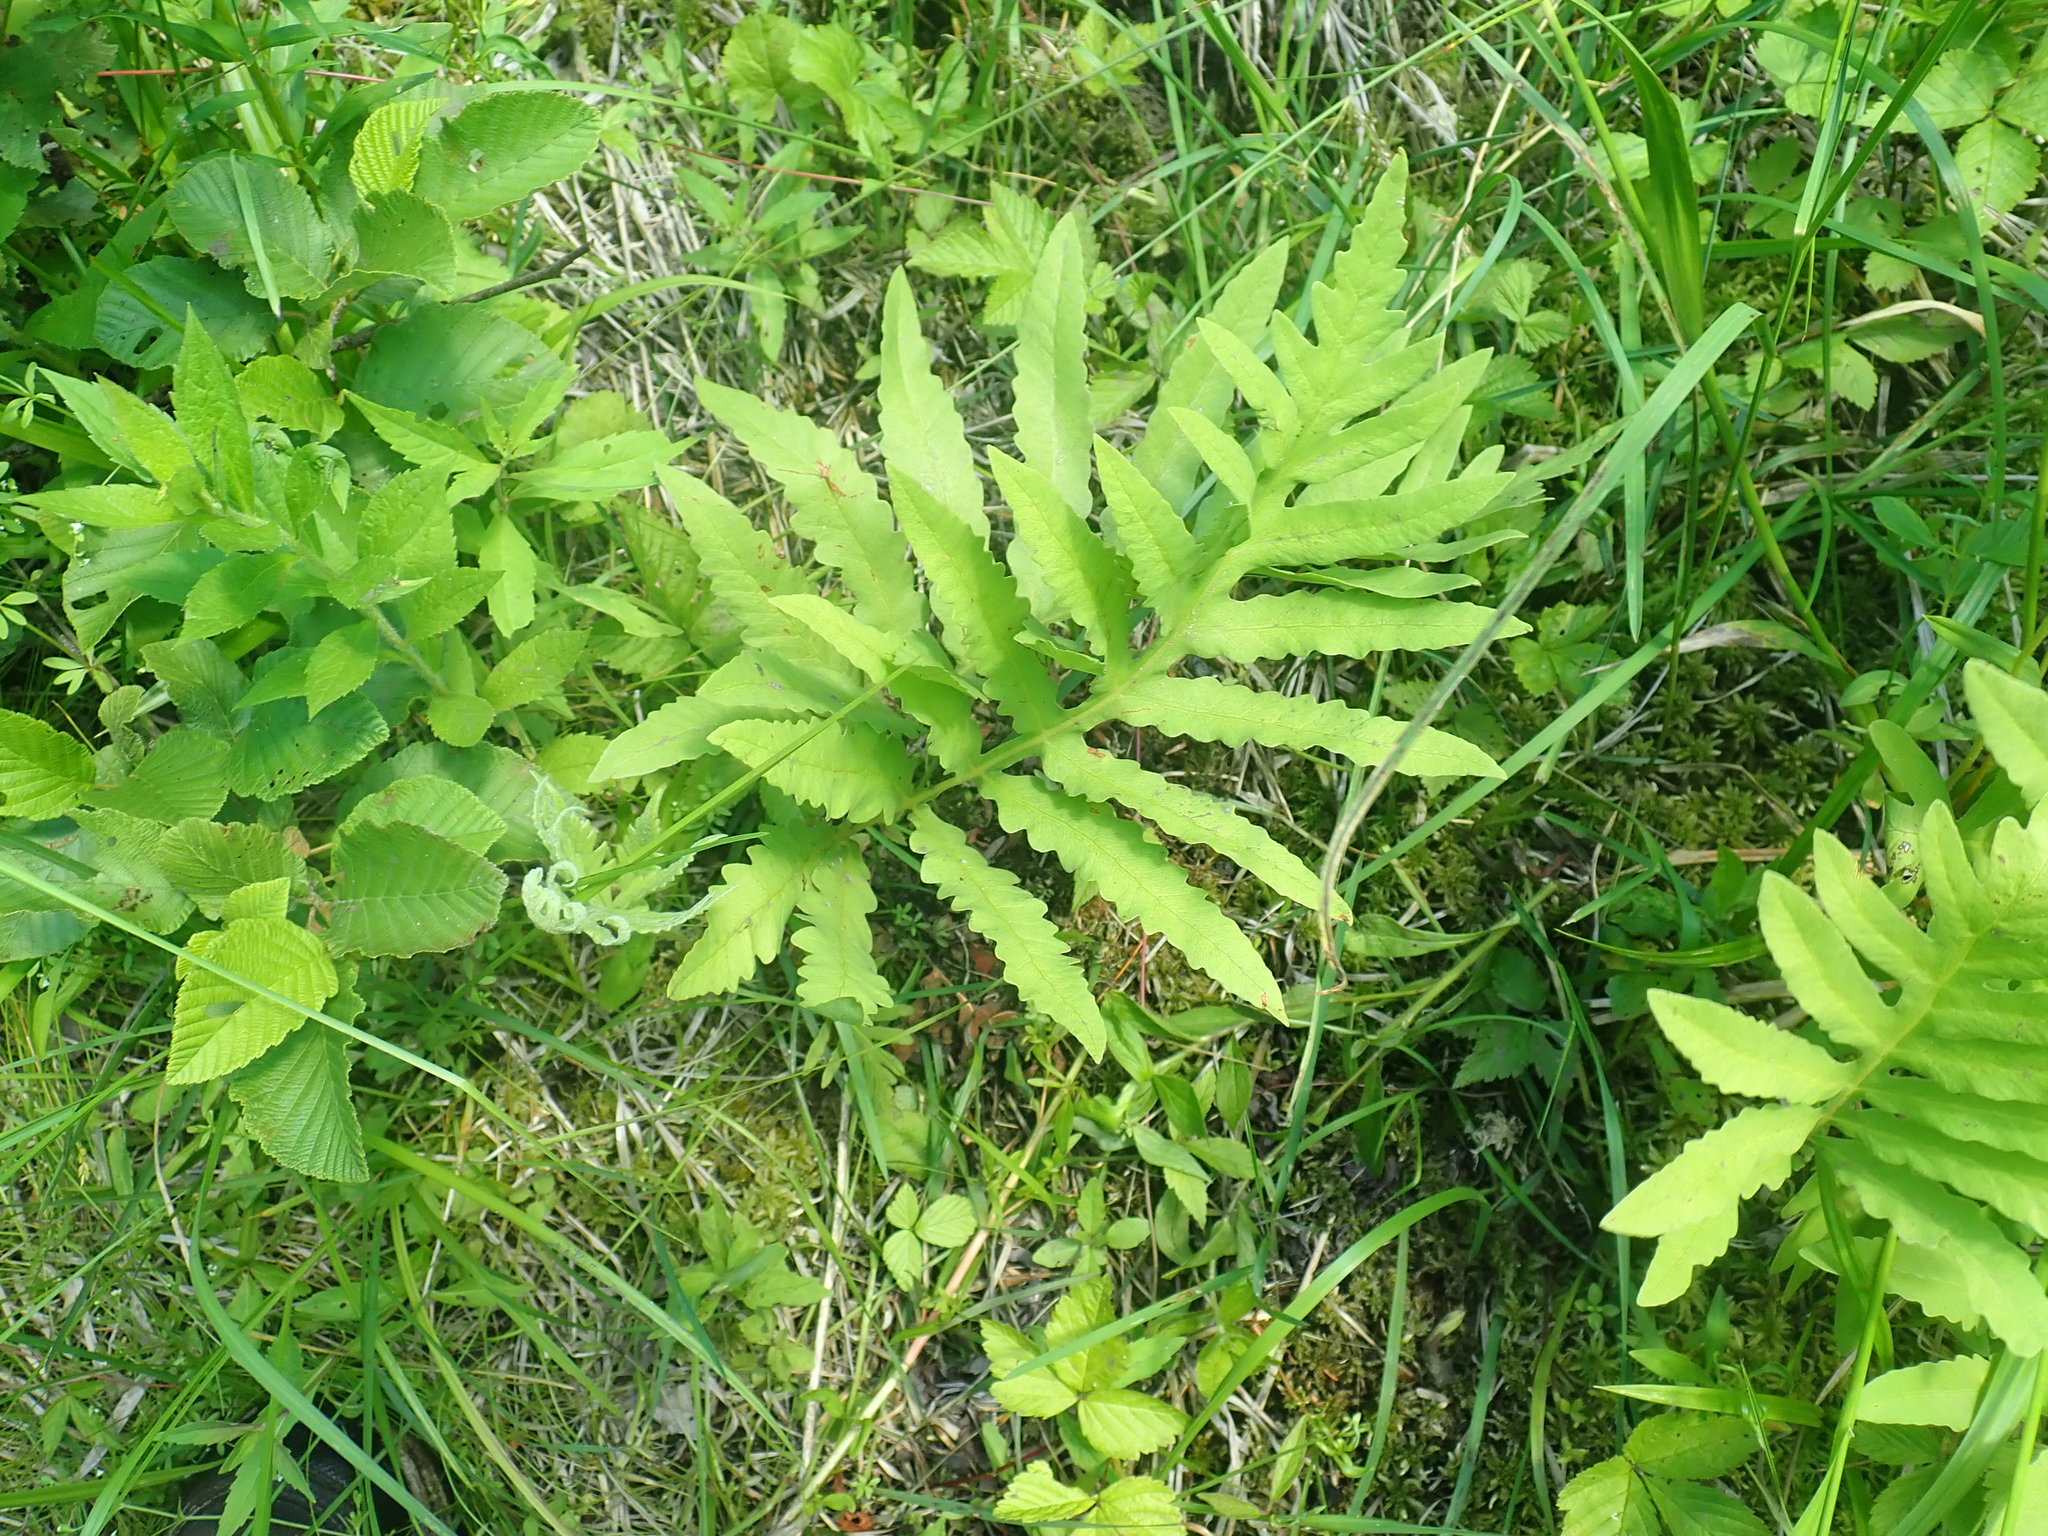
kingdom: Plantae
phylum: Tracheophyta
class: Polypodiopsida
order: Polypodiales
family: Onocleaceae
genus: Onoclea
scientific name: Onoclea sensibilis
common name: Sensitive fern
